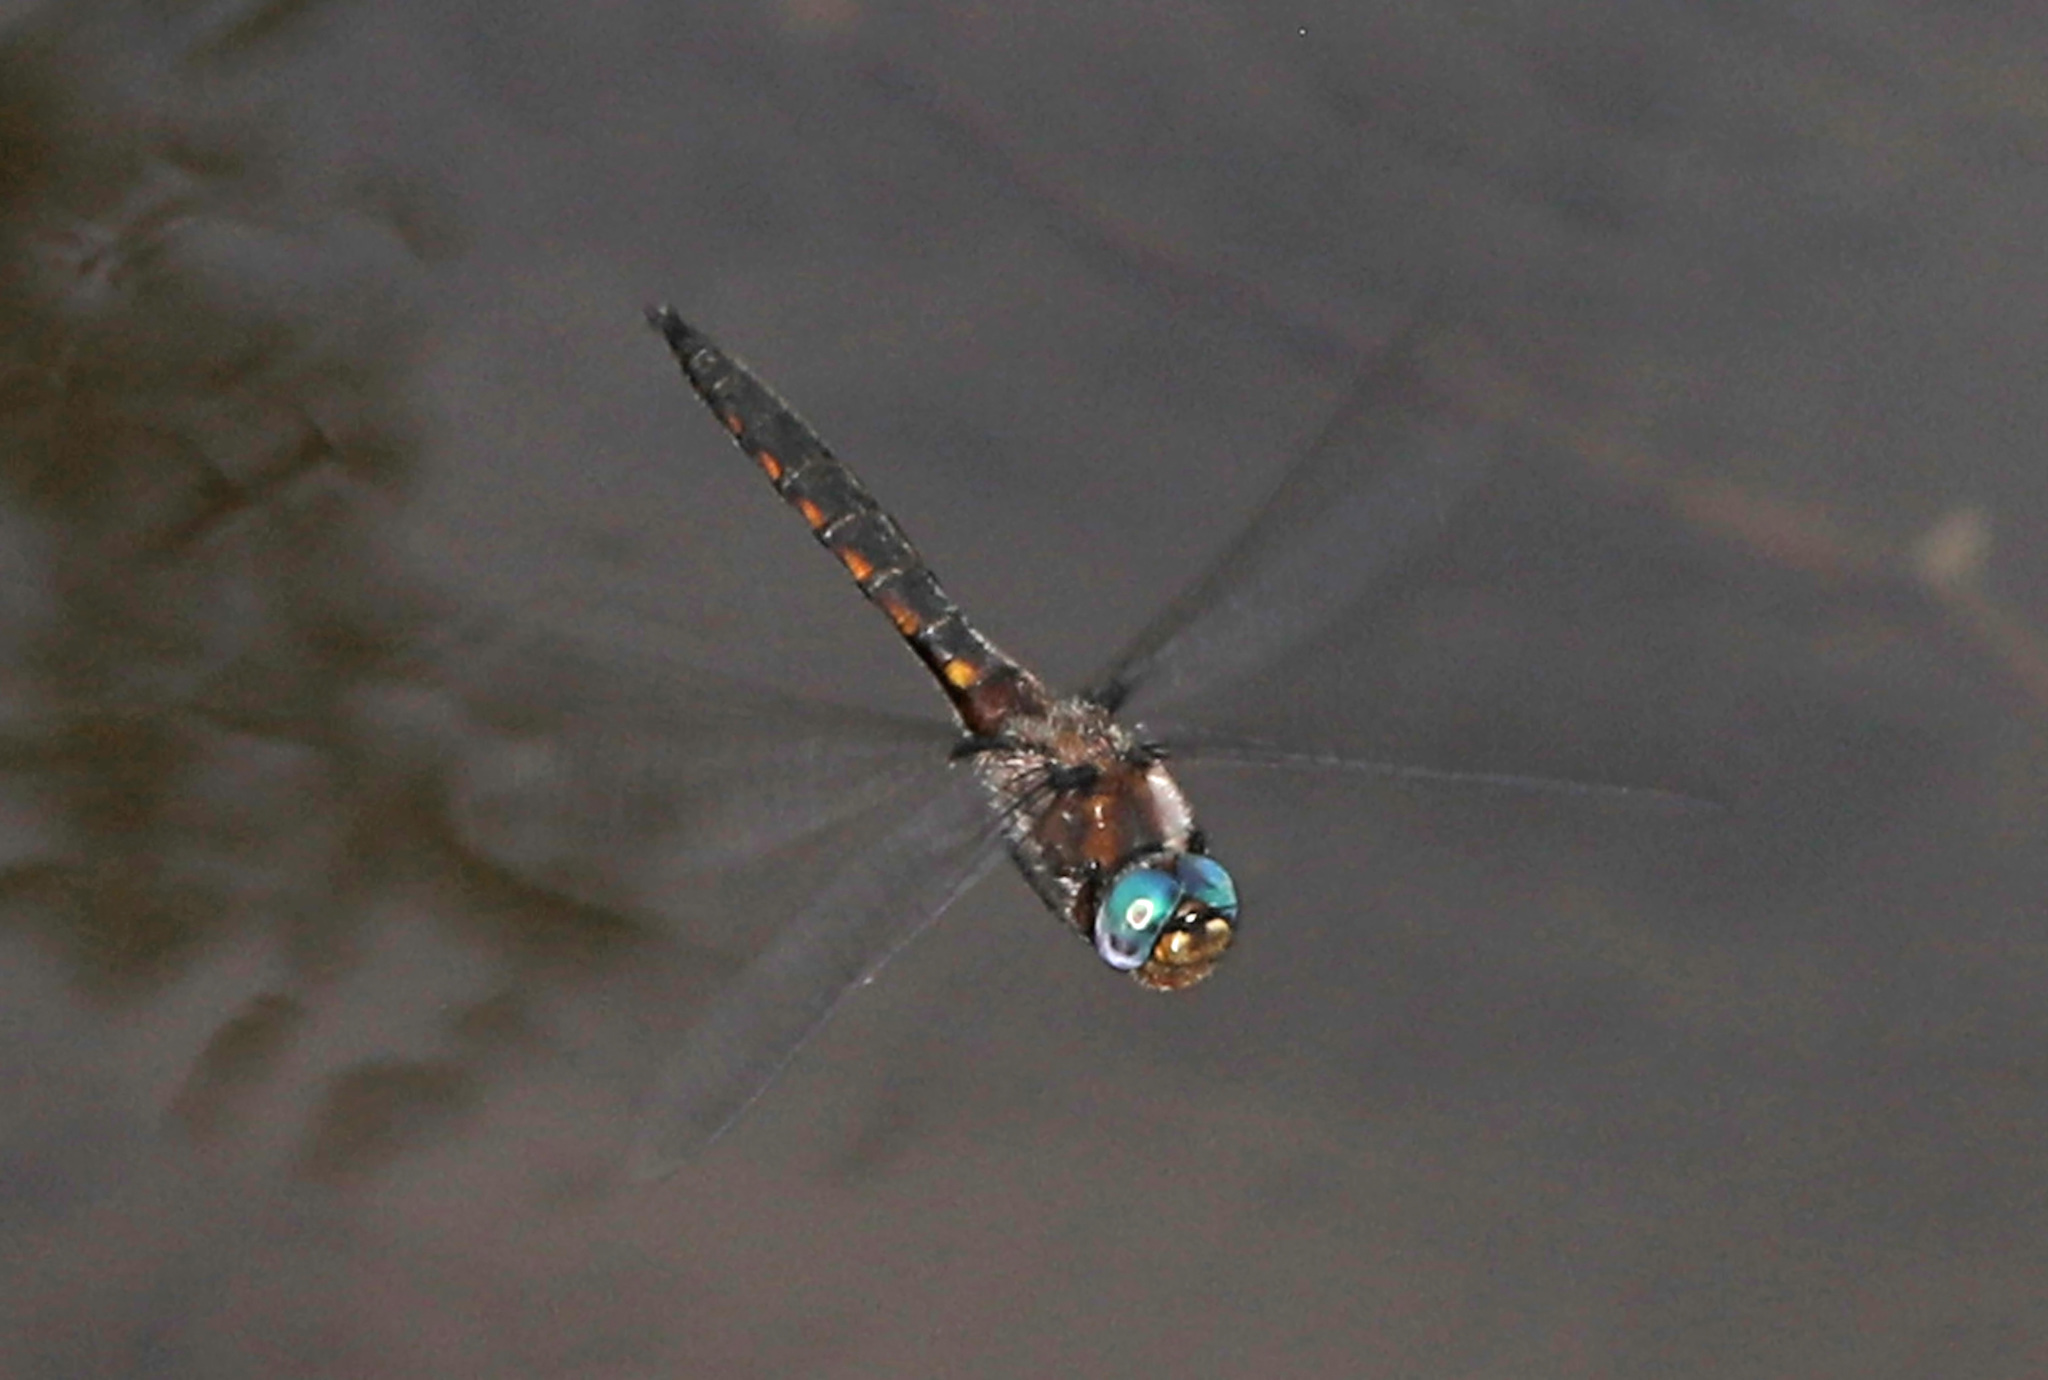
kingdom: Animalia
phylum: Arthropoda
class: Insecta
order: Odonata
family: Corduliidae
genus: Epitheca
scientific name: Epitheca cynosura
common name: Common baskettail
